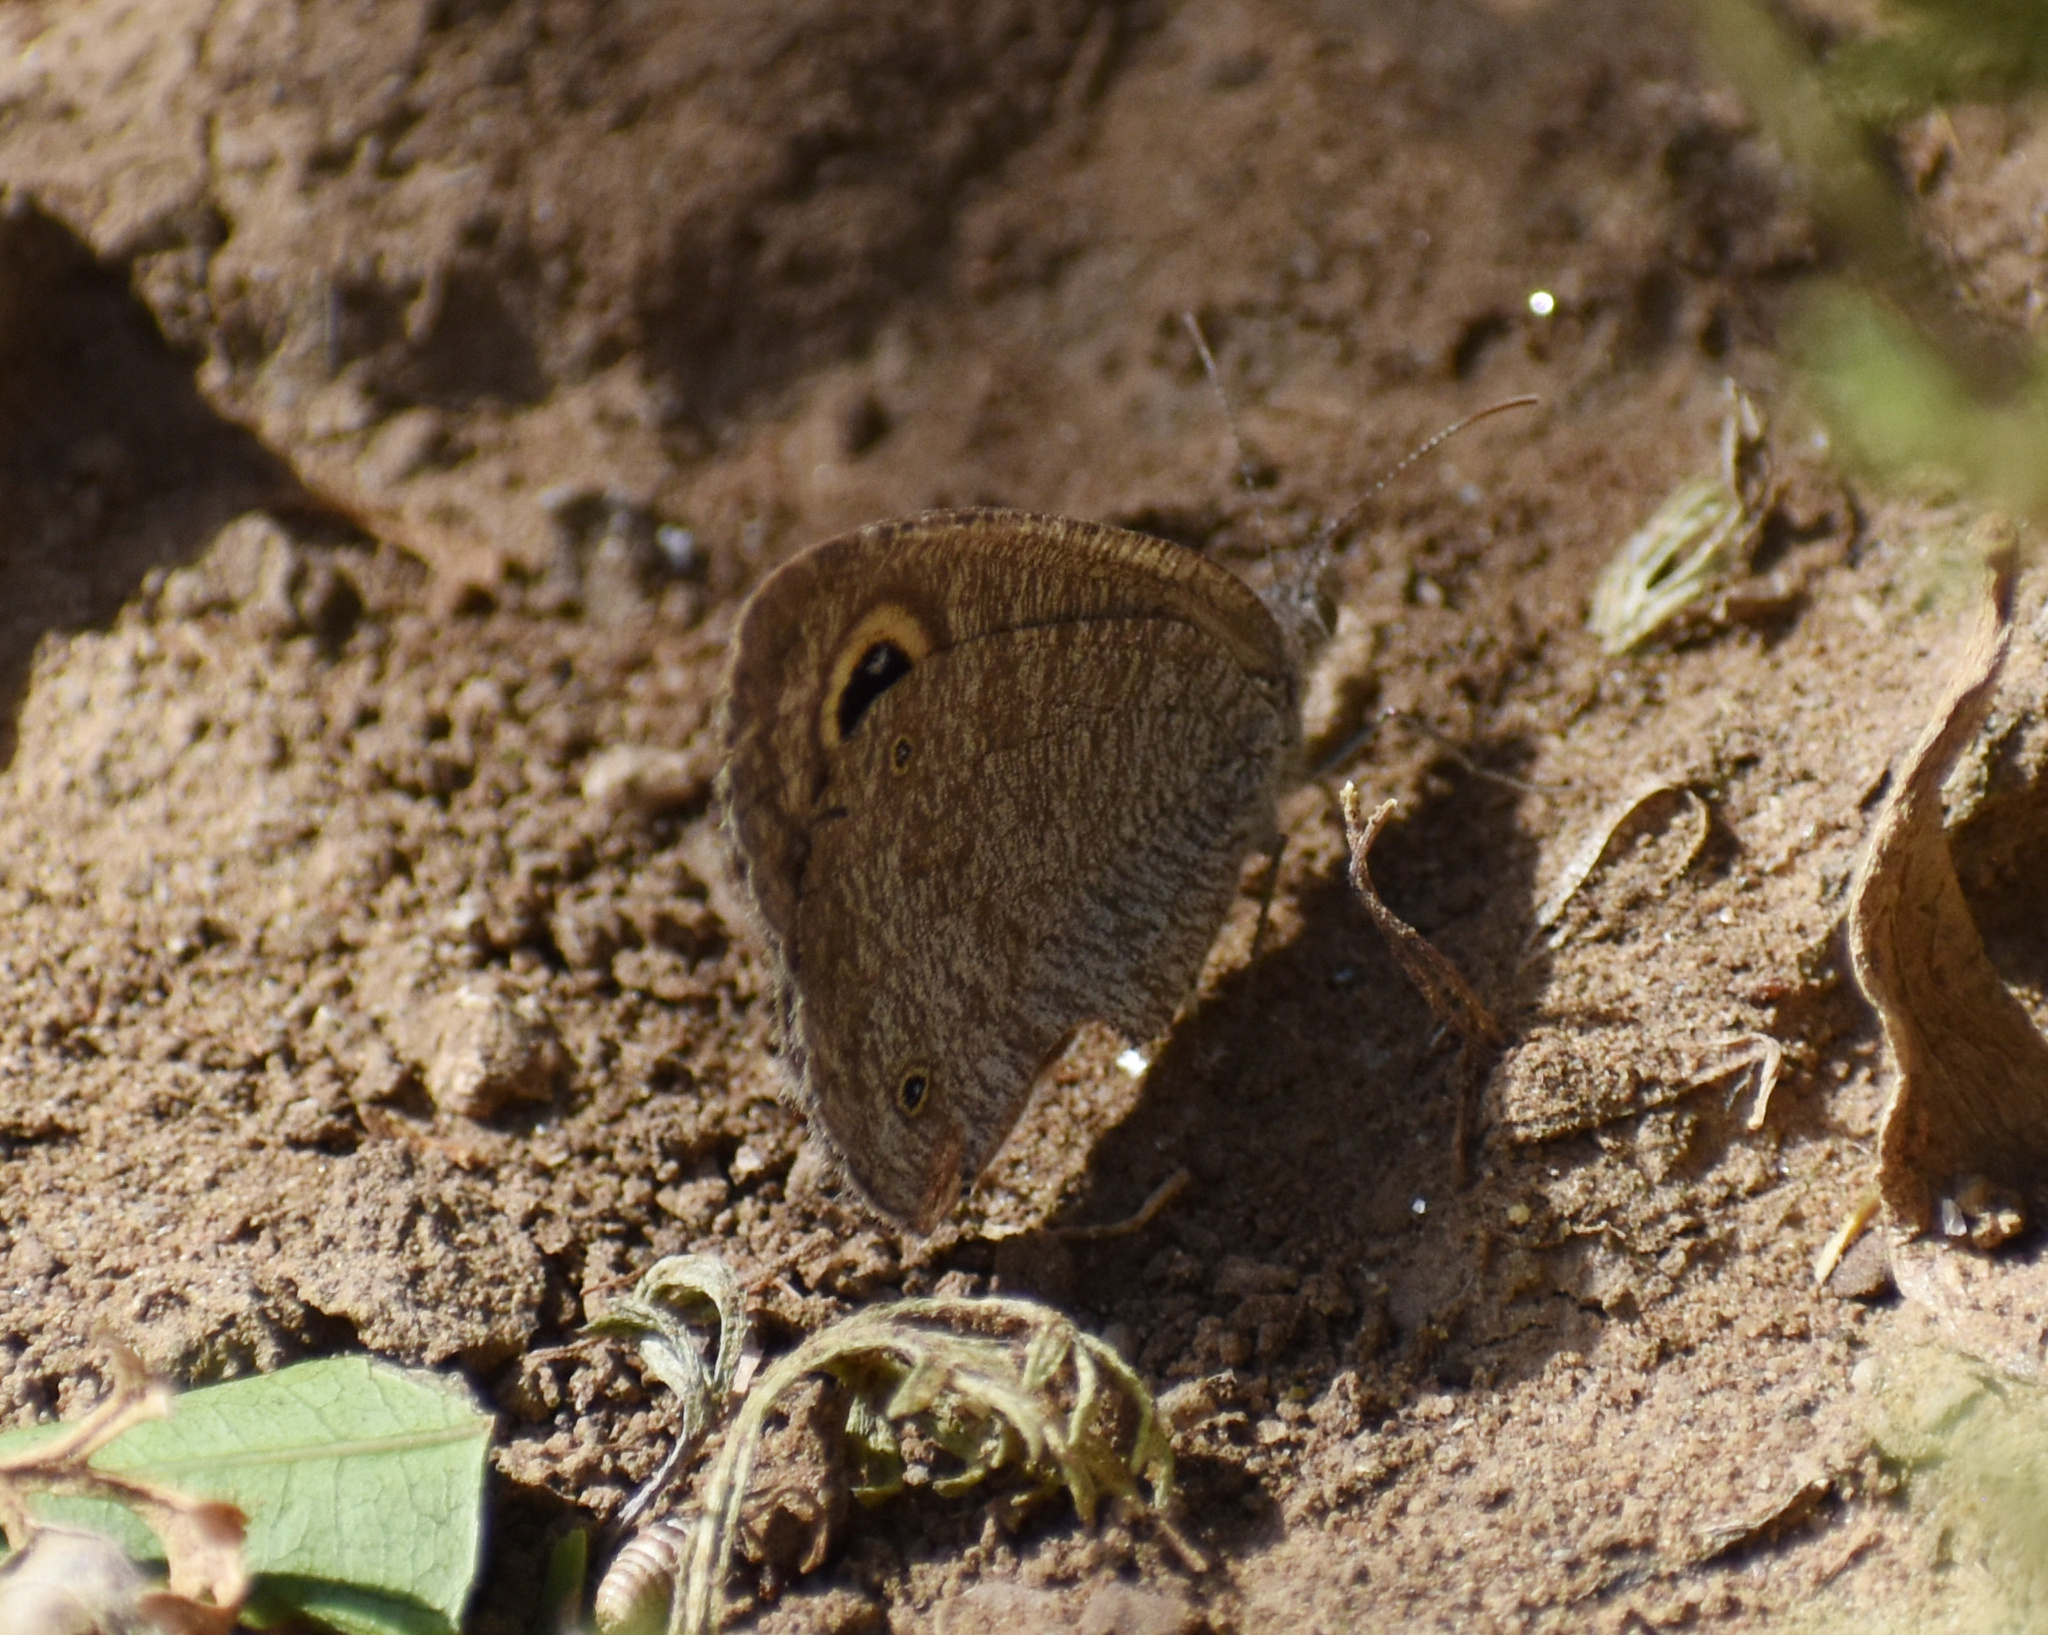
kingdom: Animalia
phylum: Arthropoda
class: Insecta
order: Lepidoptera
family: Nymphalidae
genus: Ypthima
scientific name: Ypthima asterope
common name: African ringlet
